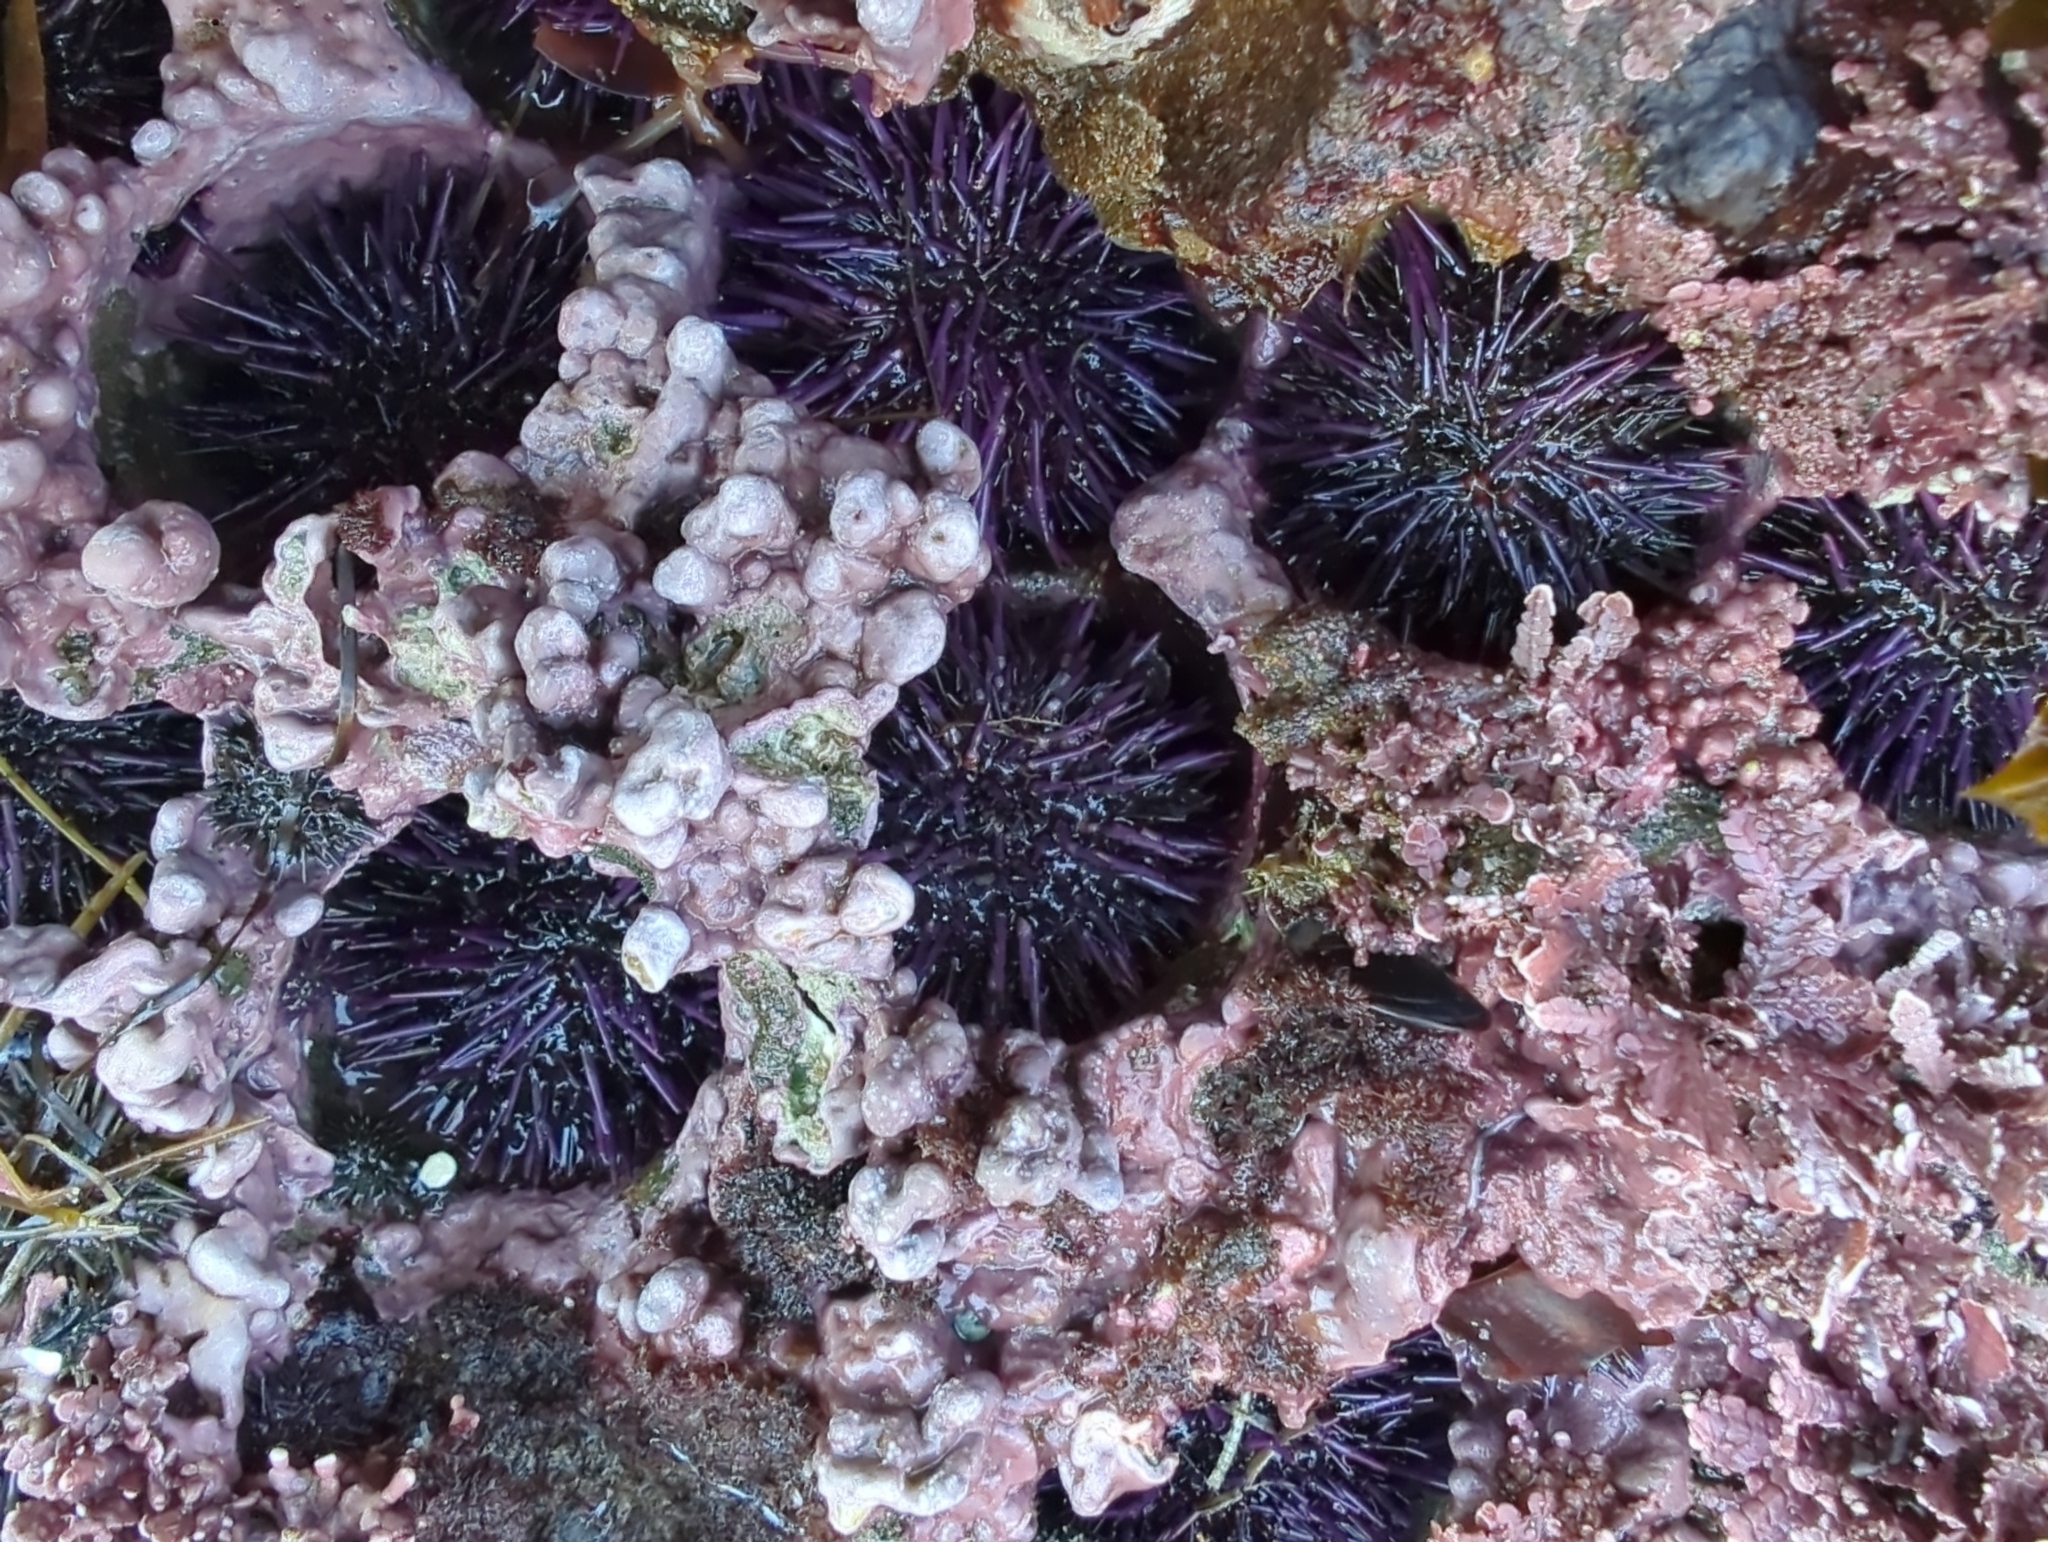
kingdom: Animalia
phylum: Echinodermata
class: Echinoidea
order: Camarodonta
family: Strongylocentrotidae
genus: Strongylocentrotus
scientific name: Strongylocentrotus purpuratus
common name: Purple sea urchin
